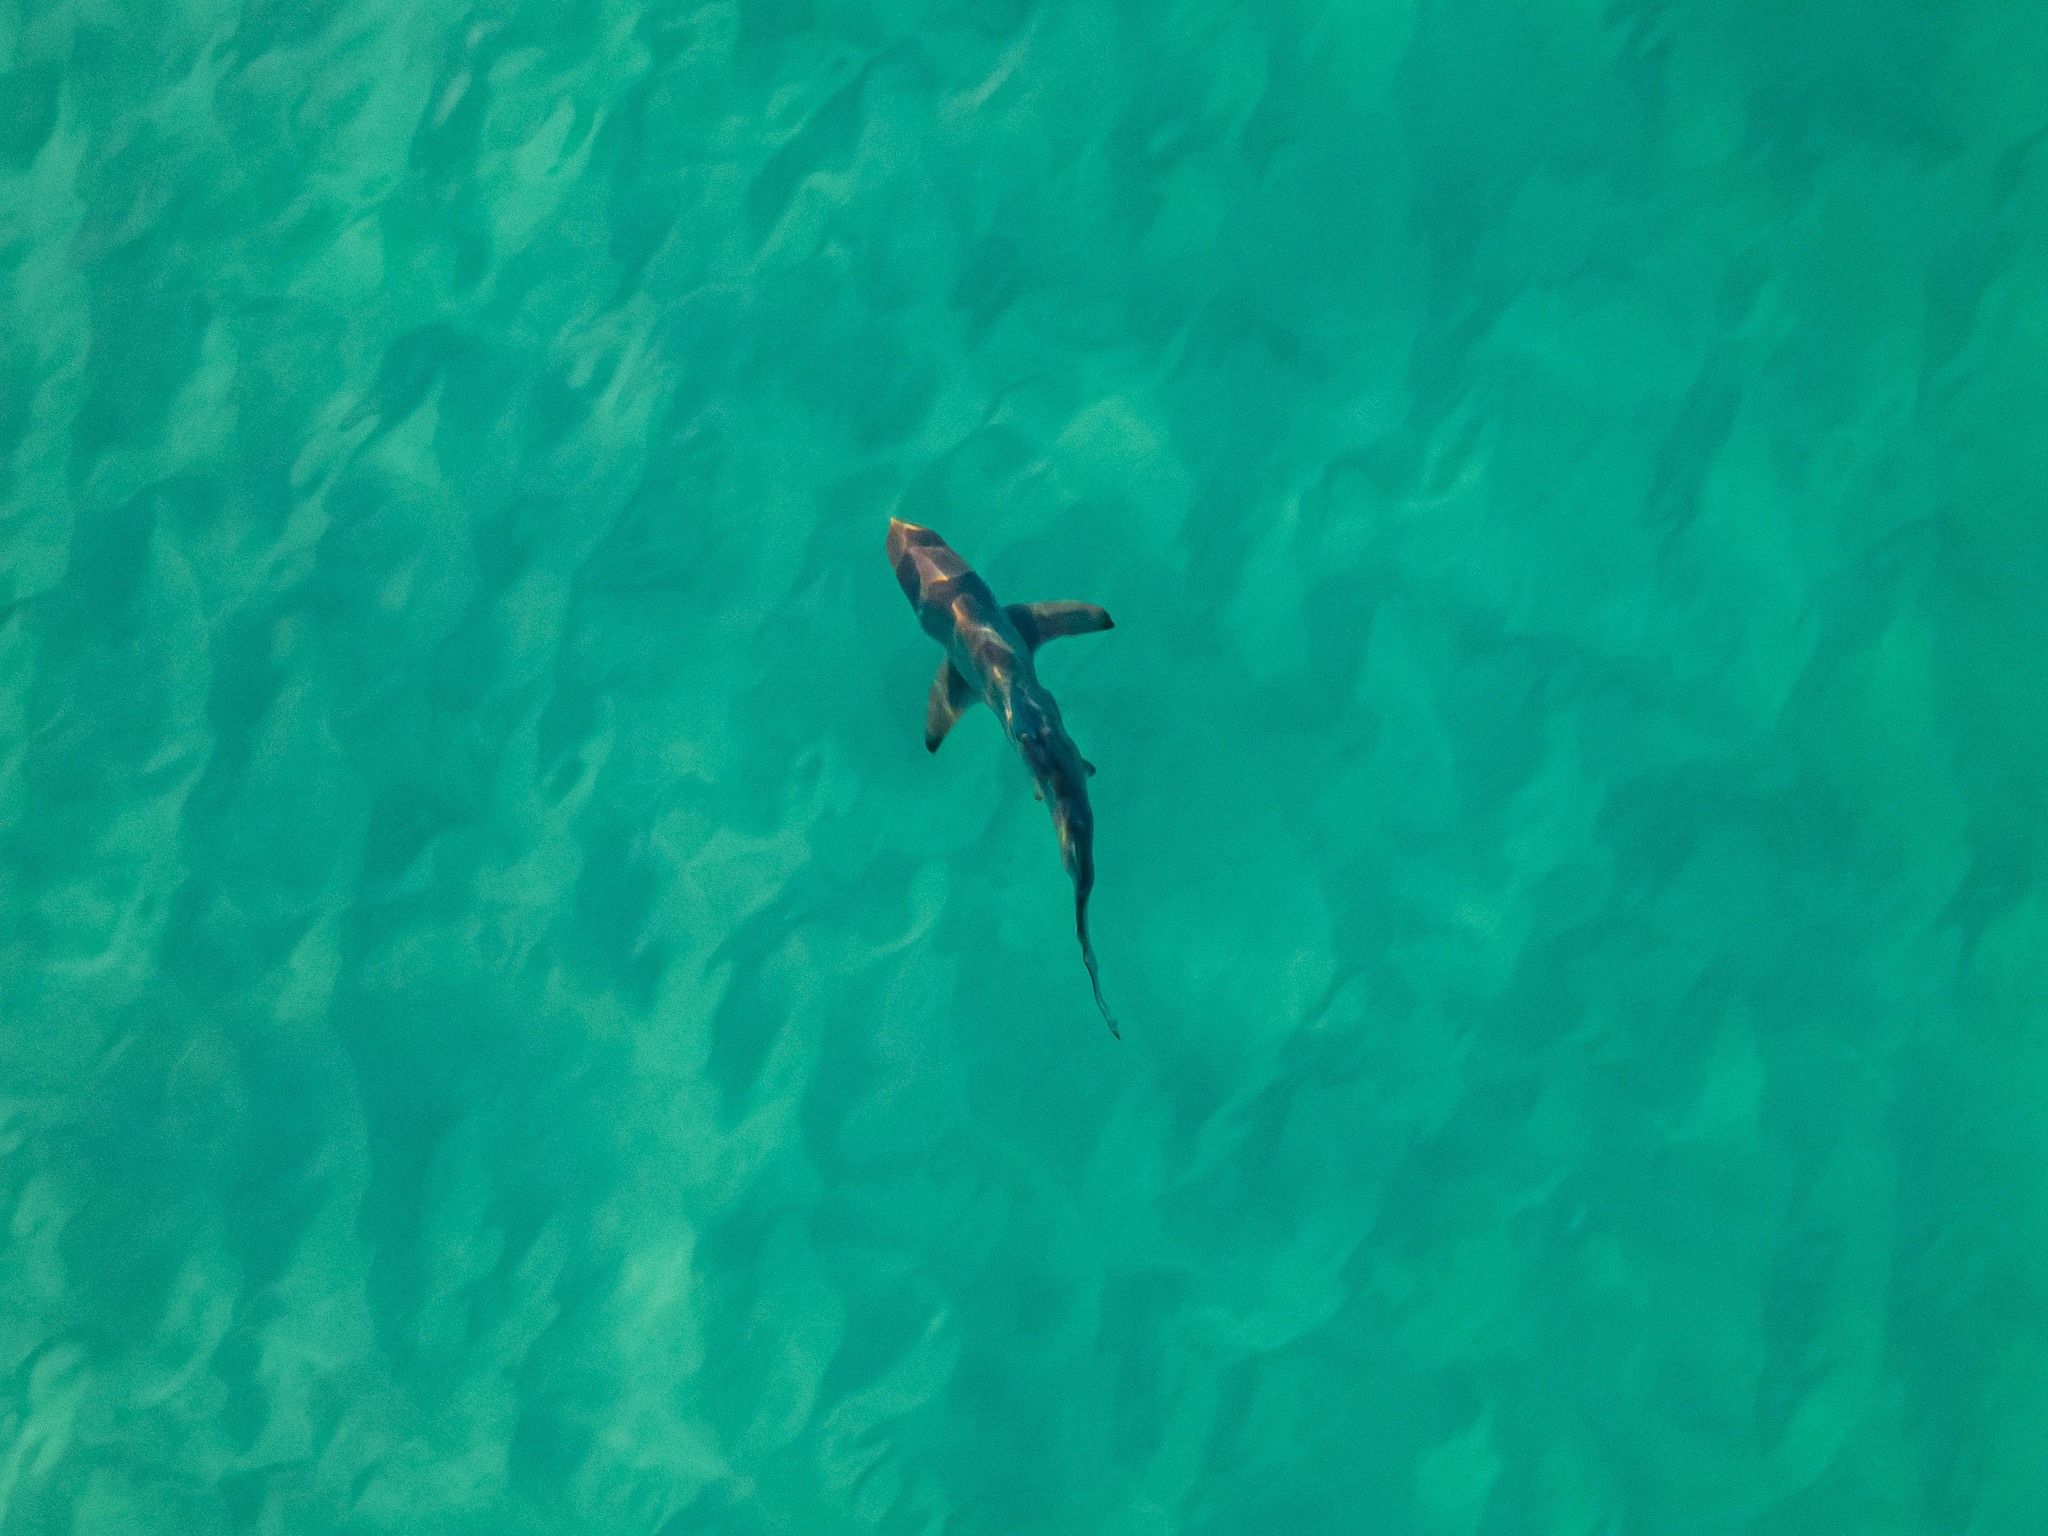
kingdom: Animalia
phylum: Chordata
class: Elasmobranchii
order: Carcharhiniformes
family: Carcharhinidae
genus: Carcharhinus
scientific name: Carcharhinus limbatus
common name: Blacktip shark
